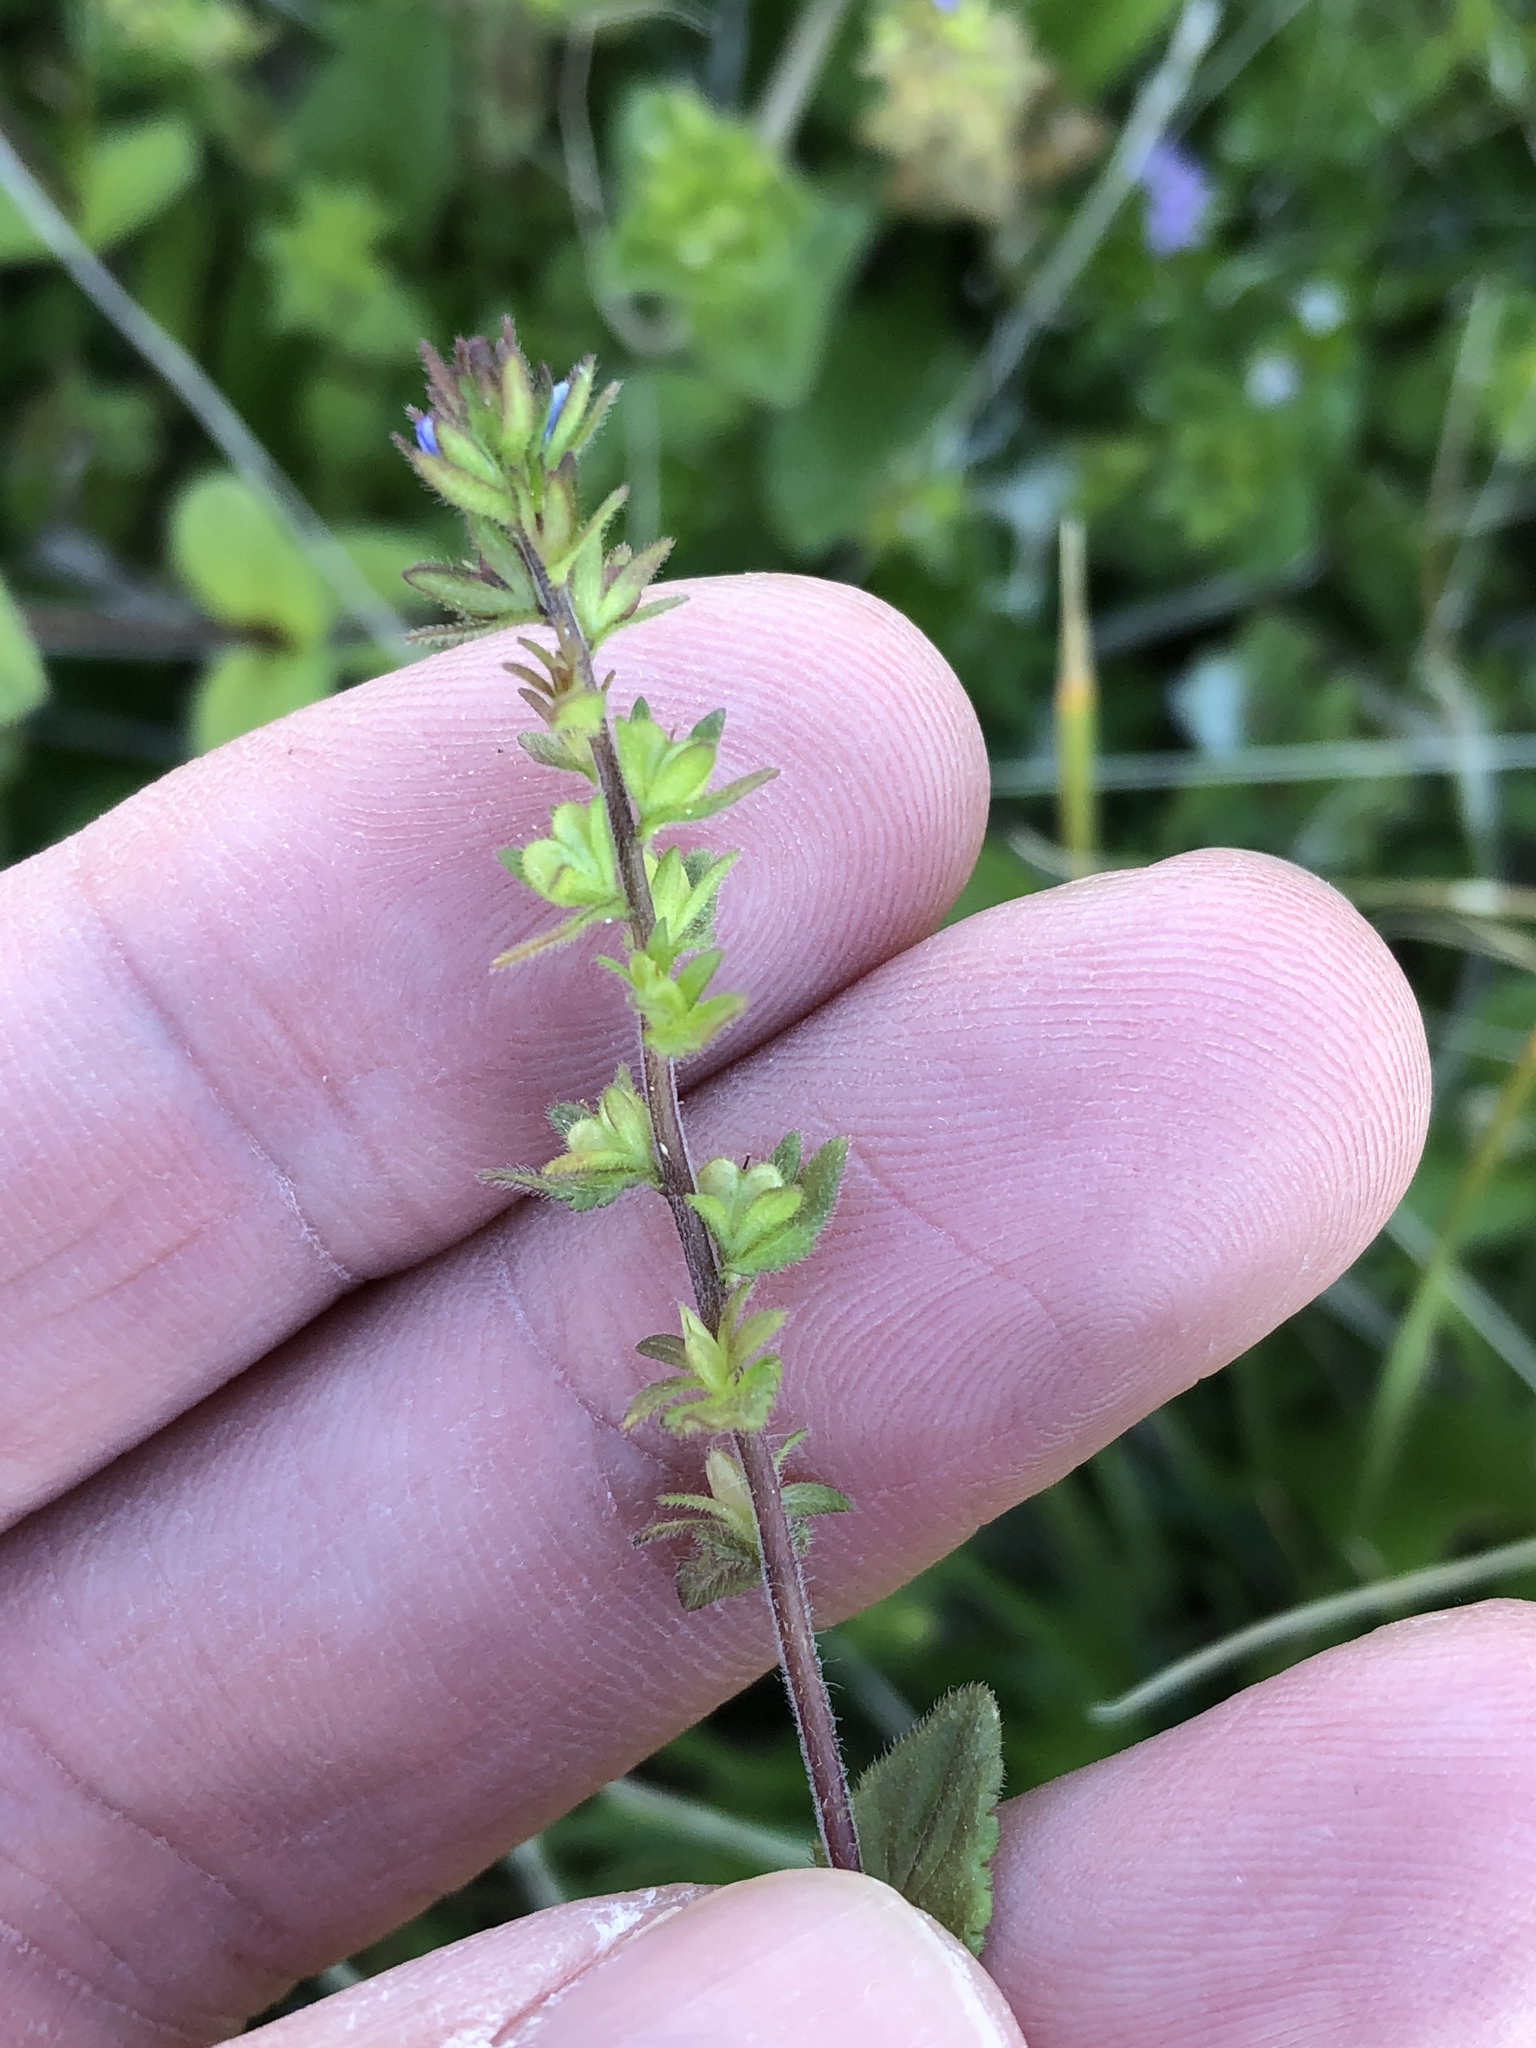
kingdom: Plantae
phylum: Tracheophyta
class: Magnoliopsida
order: Lamiales
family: Plantaginaceae
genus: Veronica
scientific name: Veronica arvensis
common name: Corn speedwell
